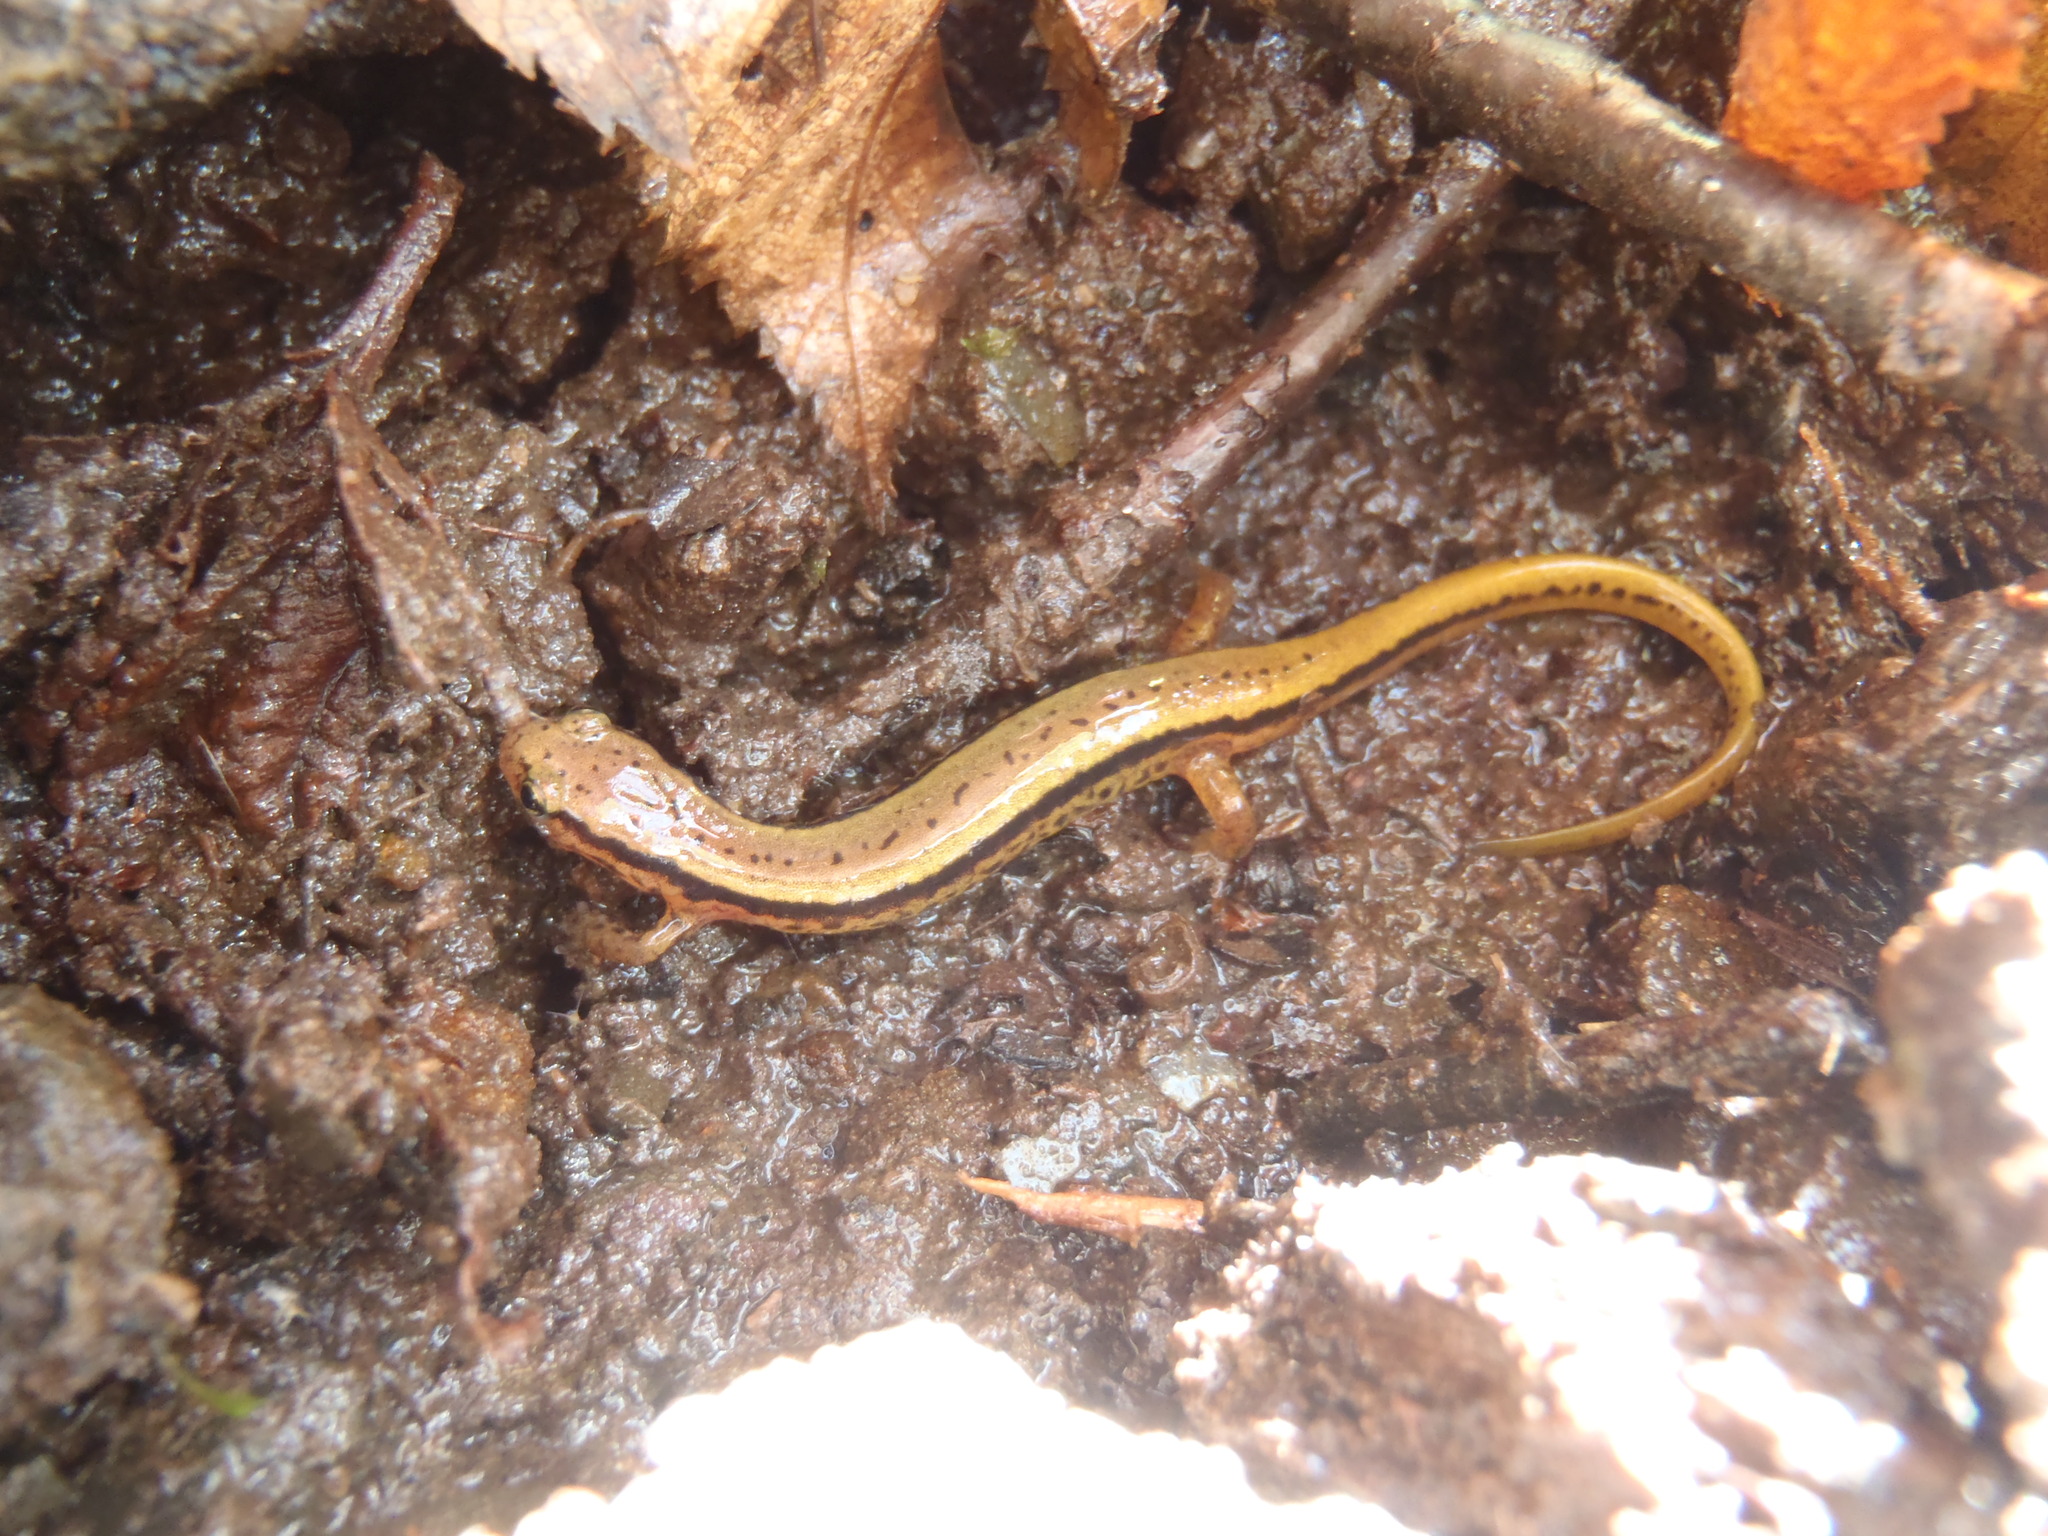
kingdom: Animalia
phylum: Chordata
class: Amphibia
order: Caudata
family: Plethodontidae
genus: Eurycea
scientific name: Eurycea wilderae
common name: Blue ridge two-lined salamander
